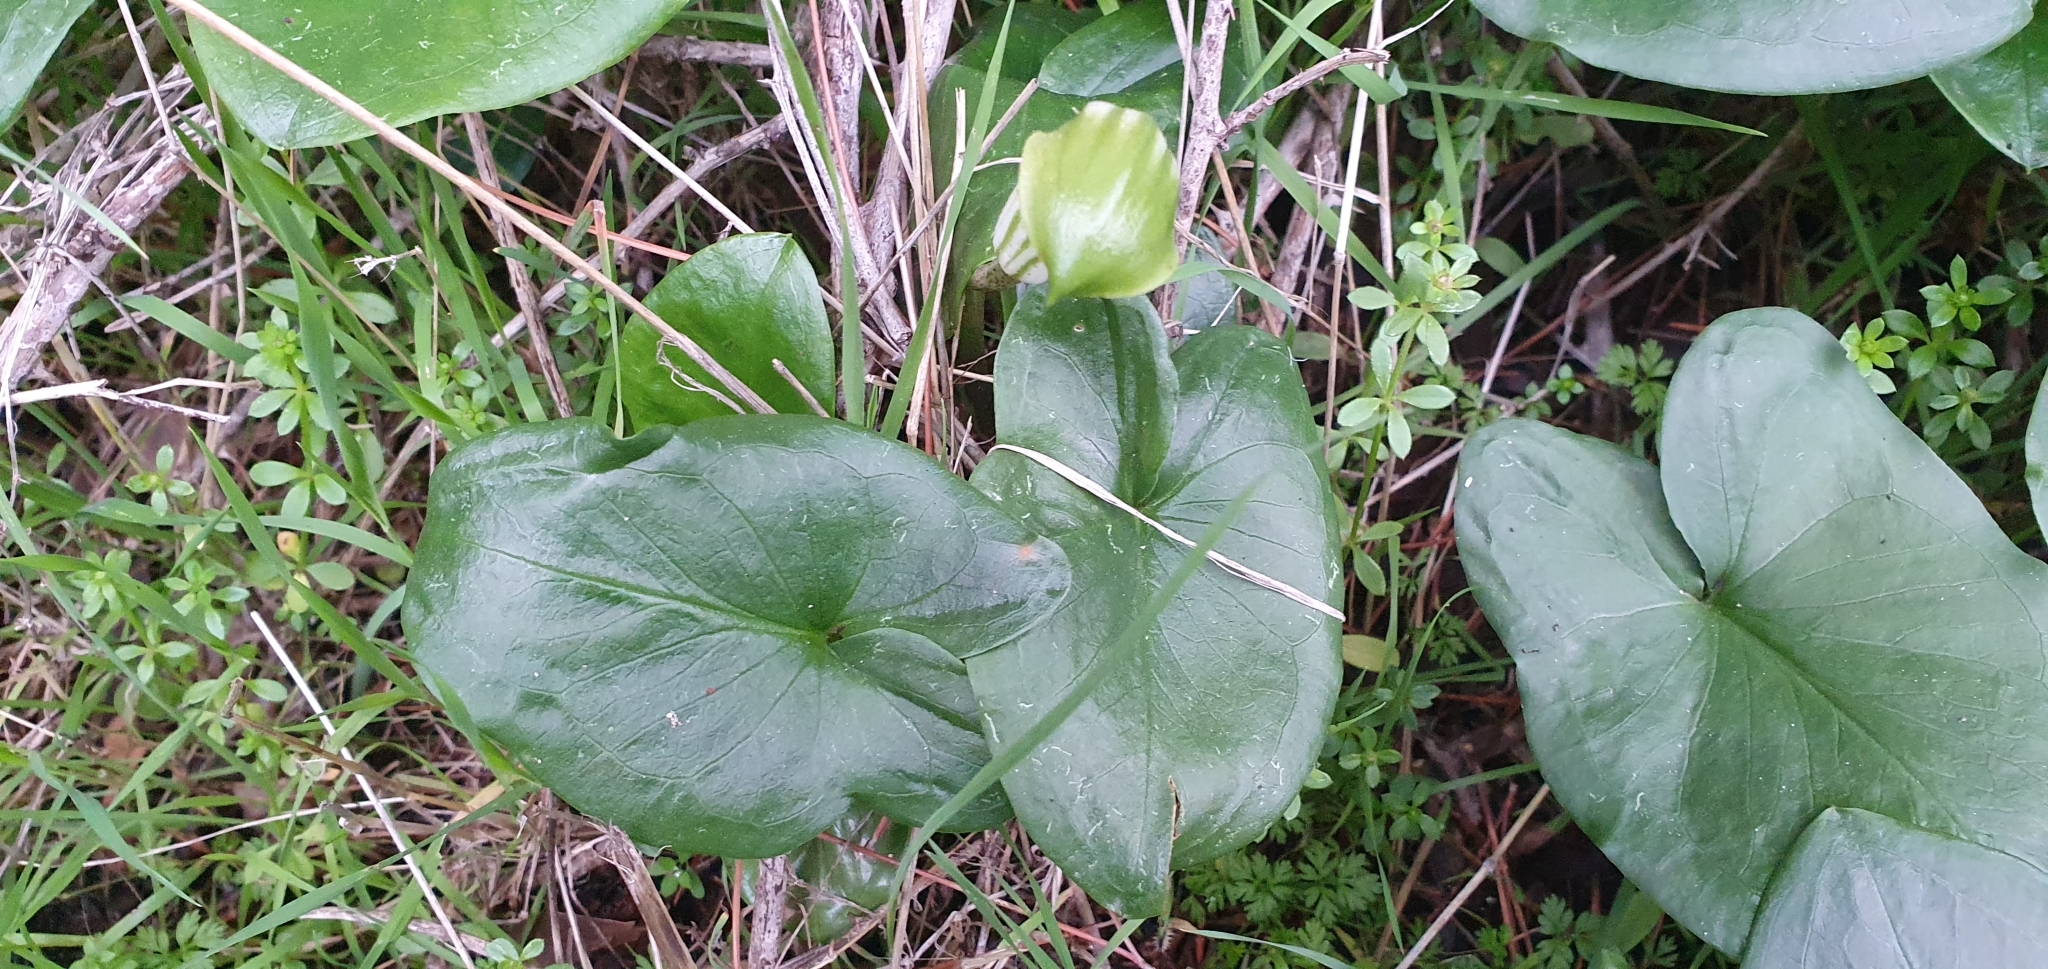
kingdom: Plantae
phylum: Tracheophyta
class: Liliopsida
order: Alismatales
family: Araceae
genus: Arisarum
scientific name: Arisarum vulgare
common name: Common arisarum
